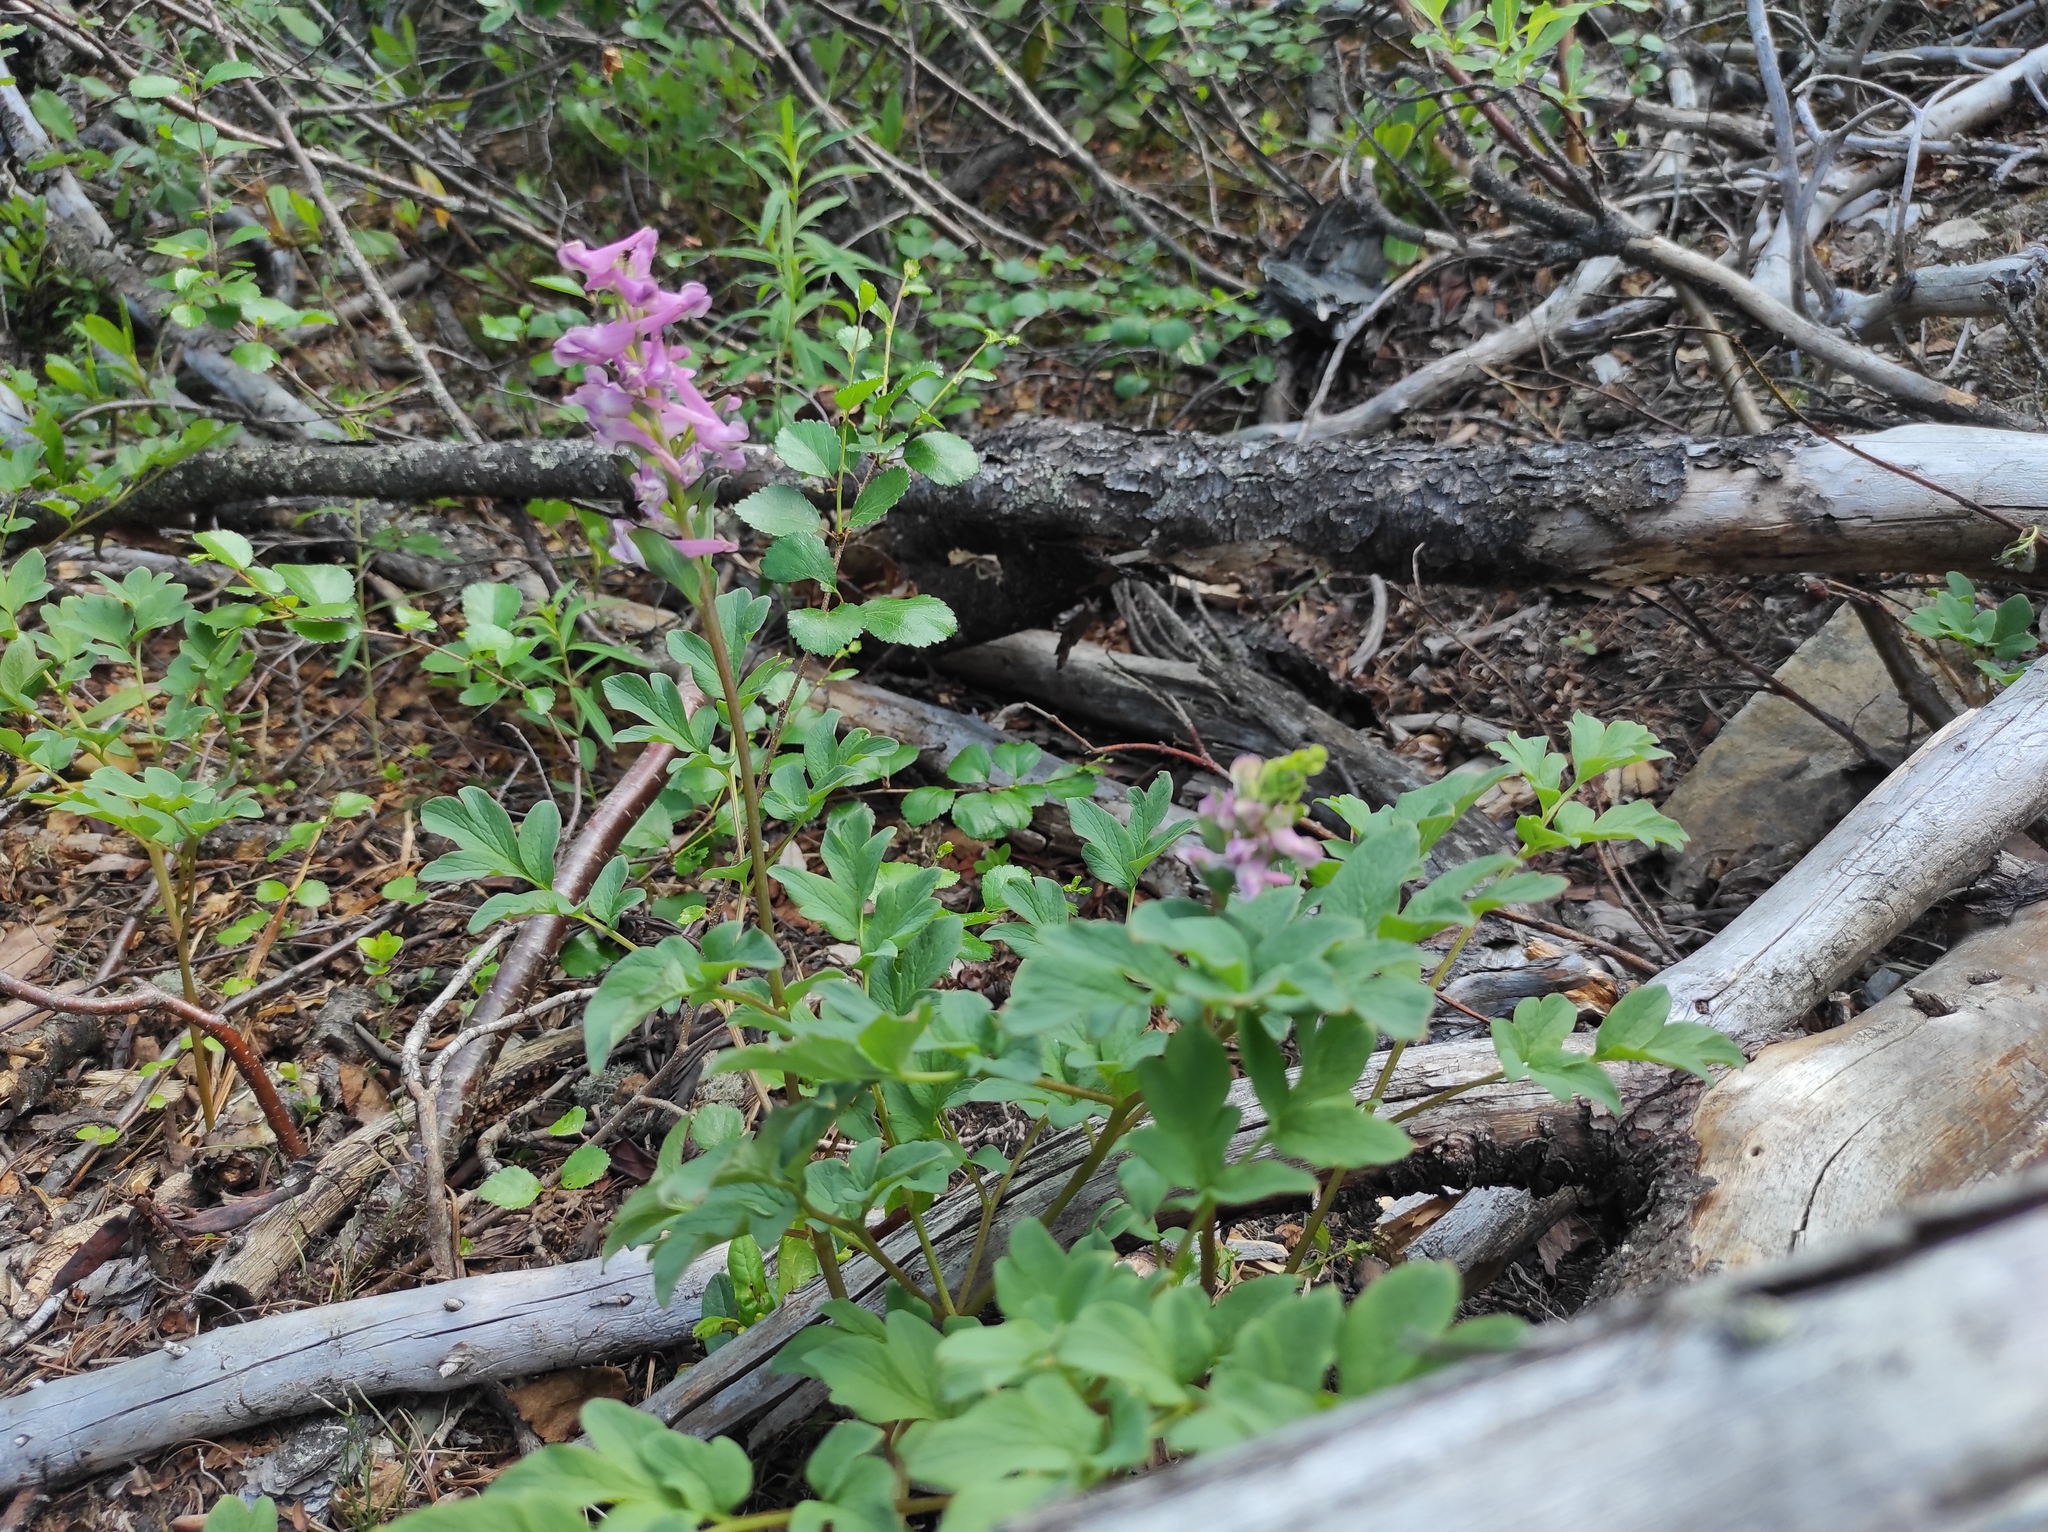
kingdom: Plantae
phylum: Tracheophyta
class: Magnoliopsida
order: Ranunculales
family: Papaveraceae
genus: Corydalis
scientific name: Corydalis paeoniifolia
